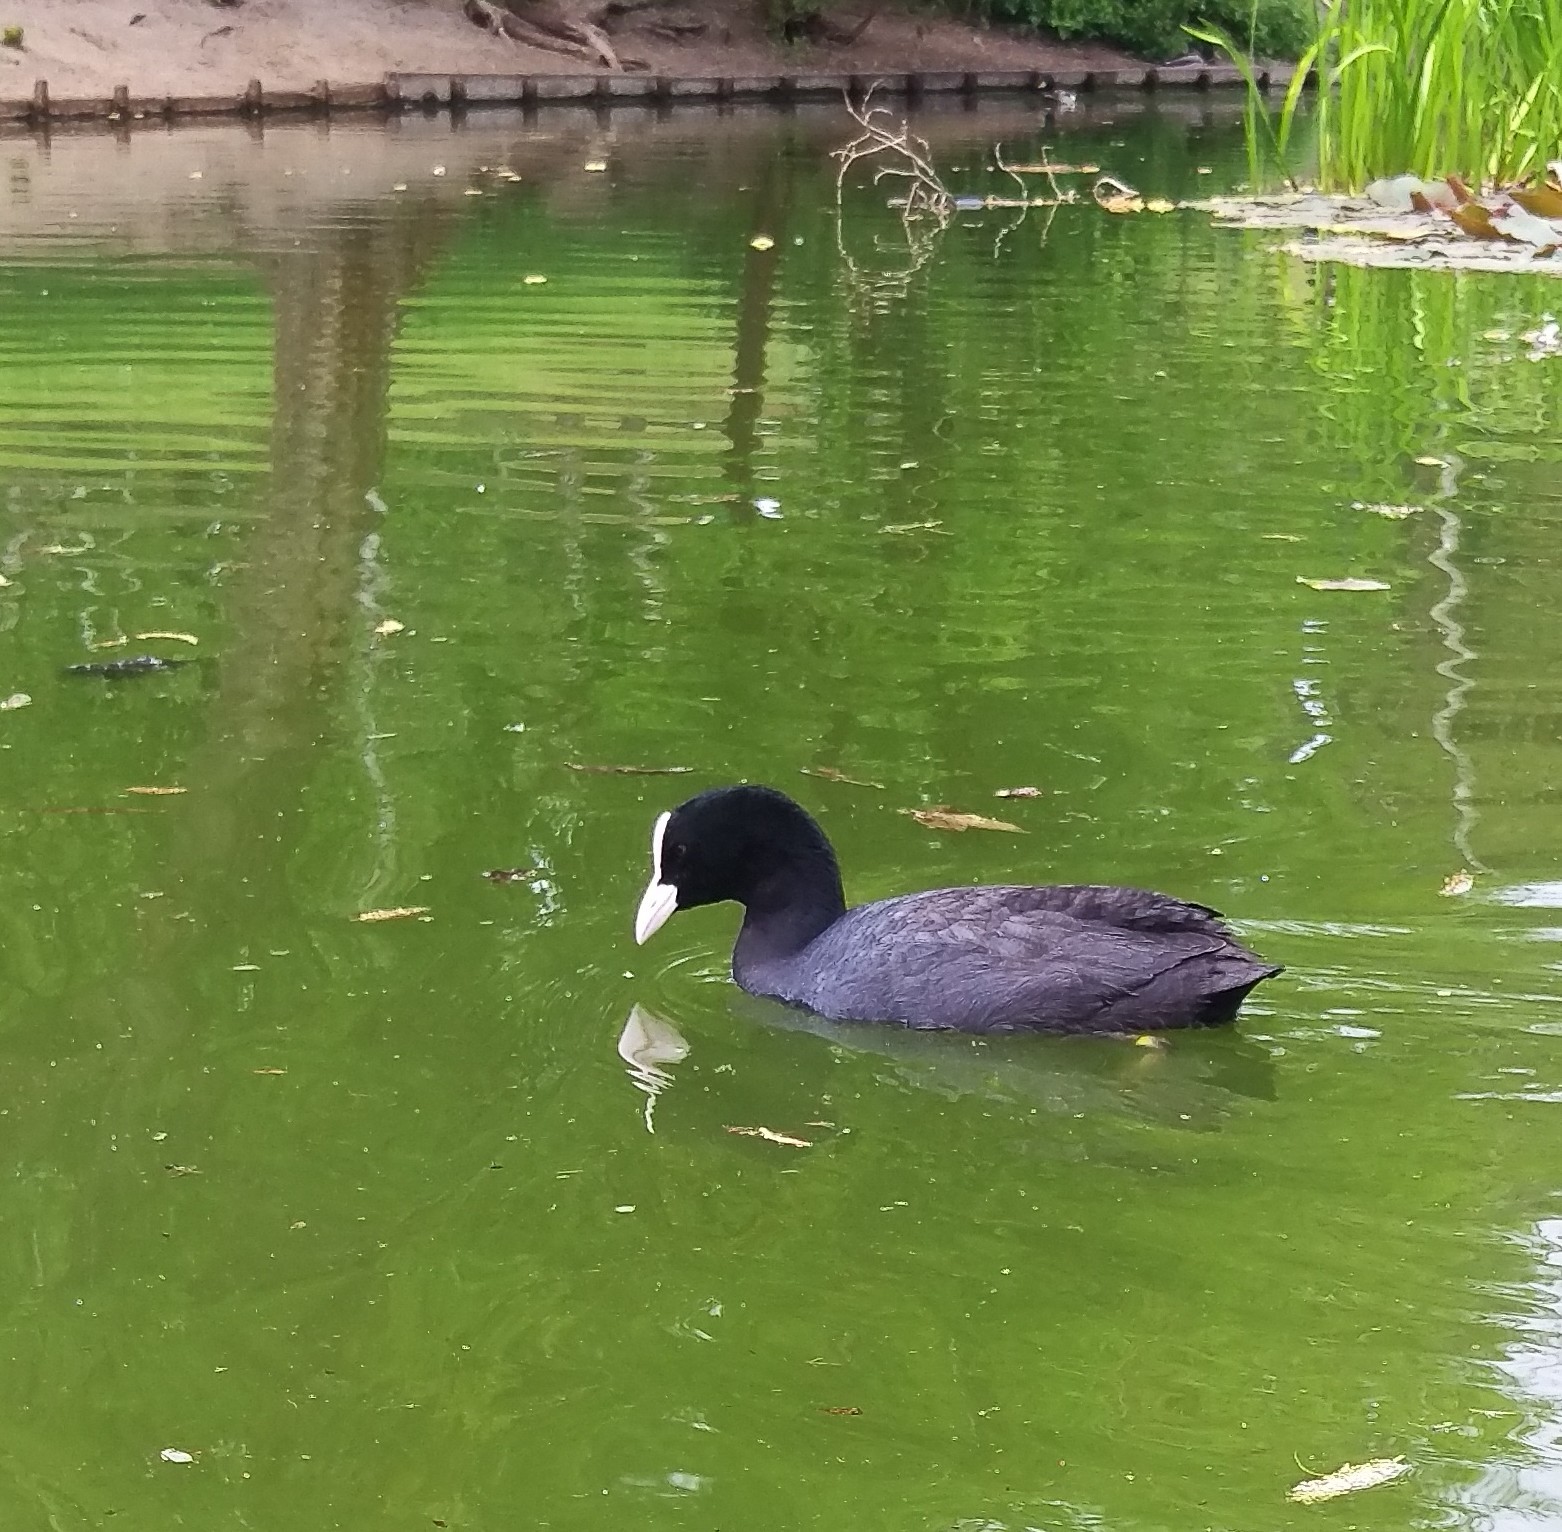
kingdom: Animalia
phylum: Chordata
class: Aves
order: Gruiformes
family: Rallidae
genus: Fulica
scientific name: Fulica atra
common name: Eurasian coot
